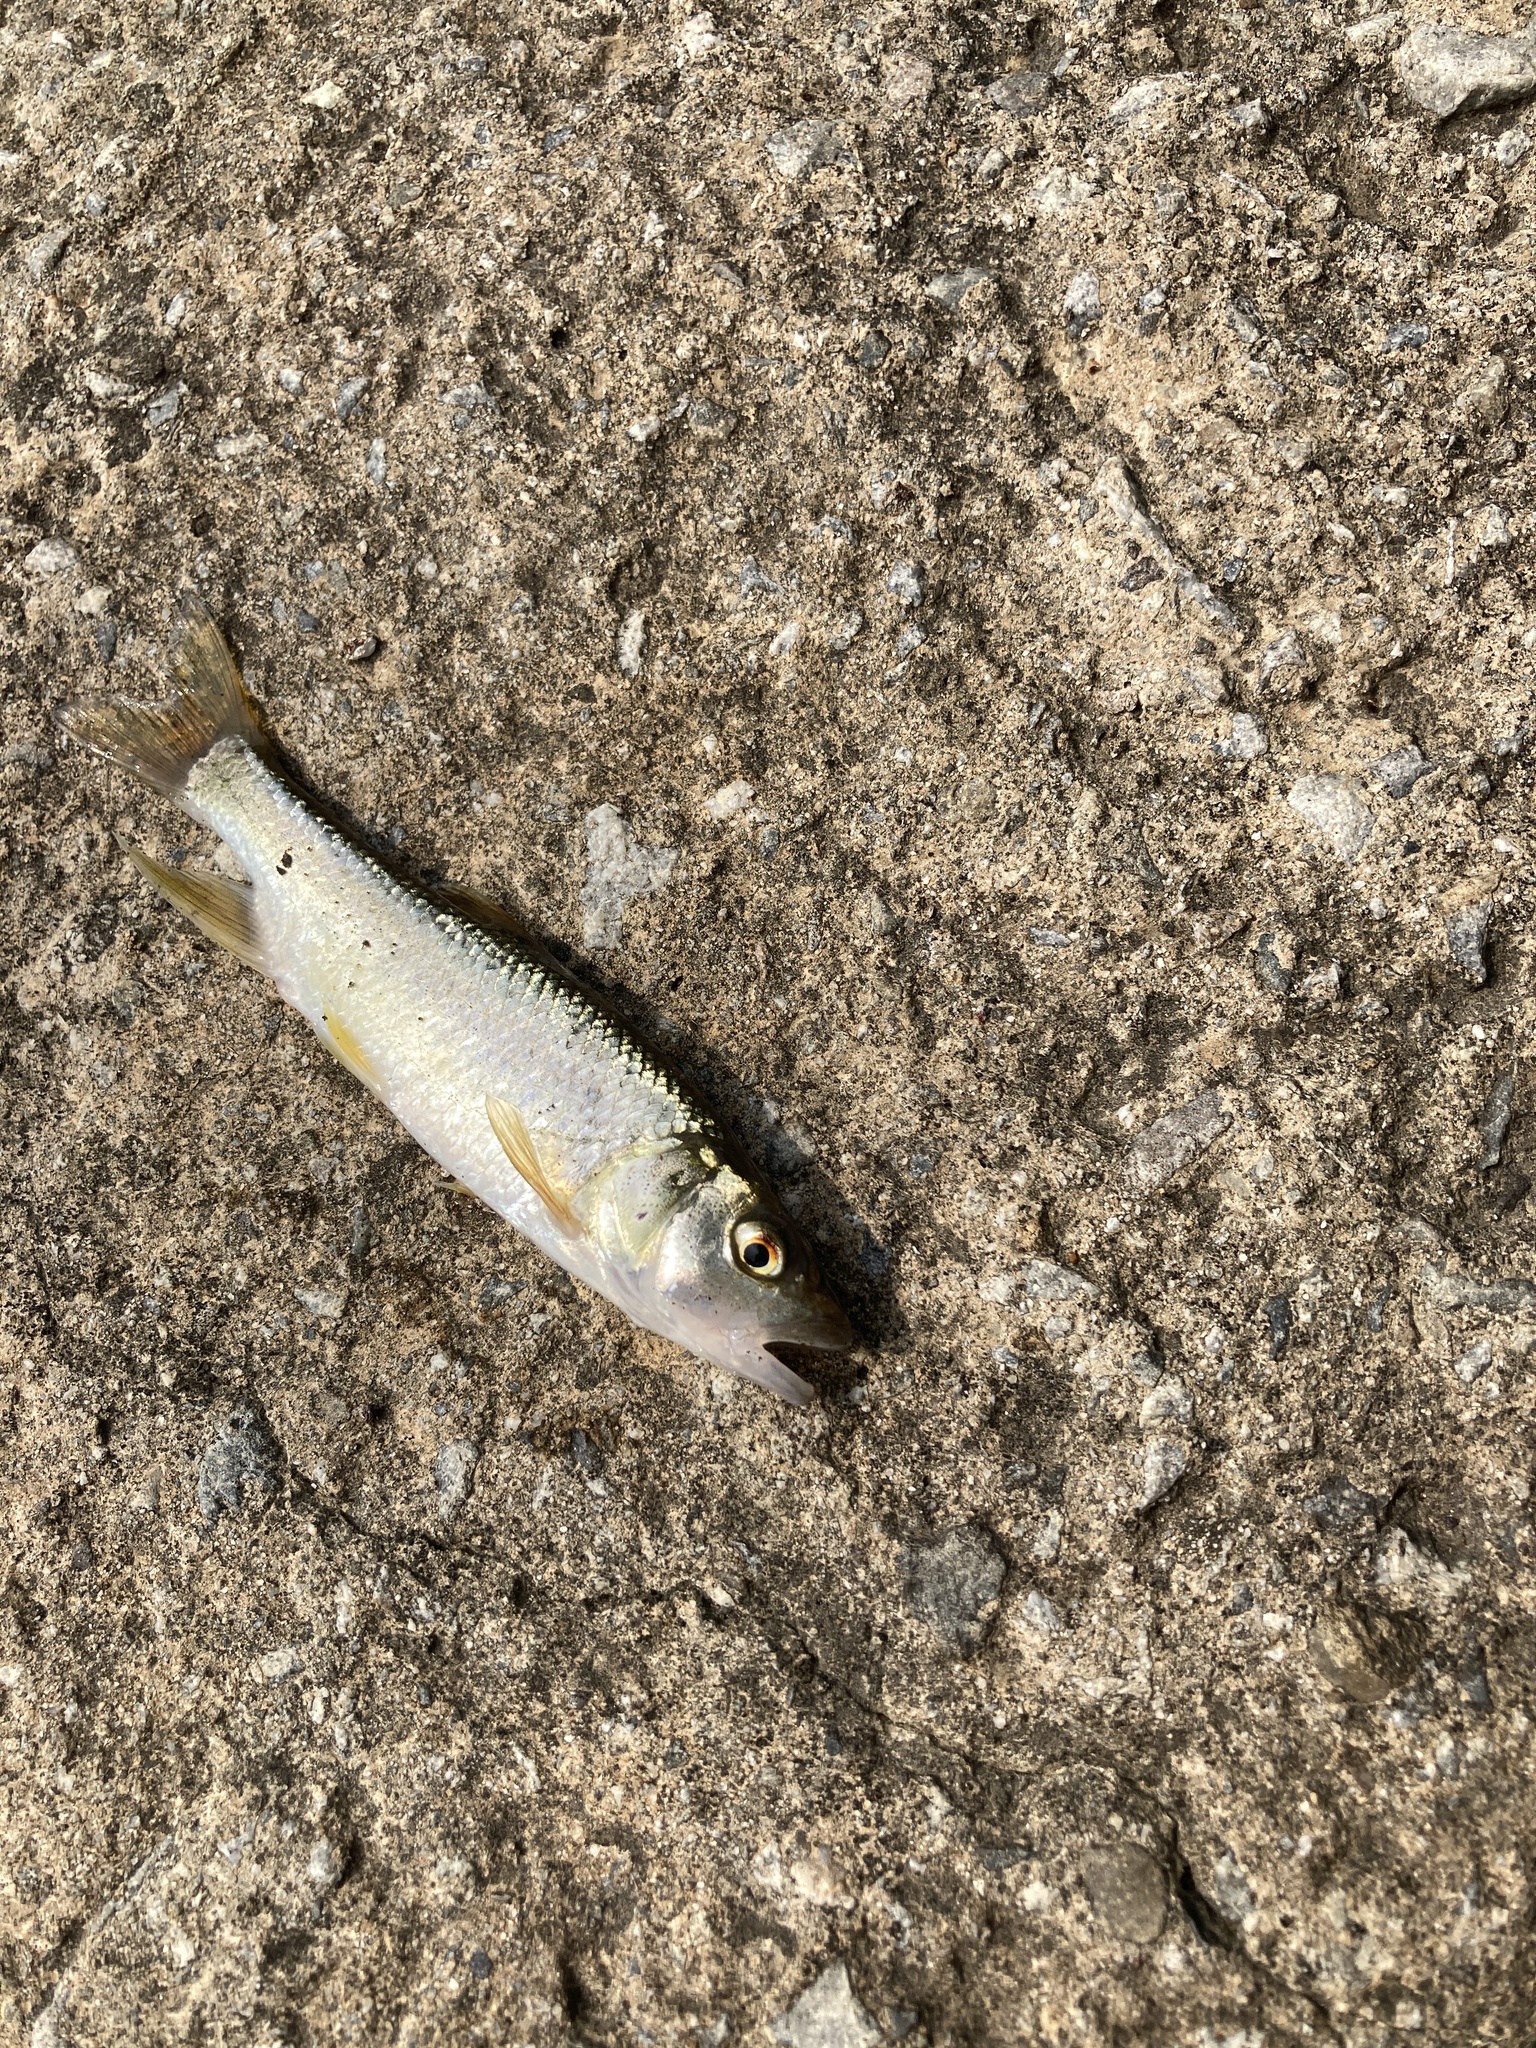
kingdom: Animalia
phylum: Chordata
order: Cypriniformes
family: Cyprinidae
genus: Opsariichthys
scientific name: Opsariichthys pachycephalus
